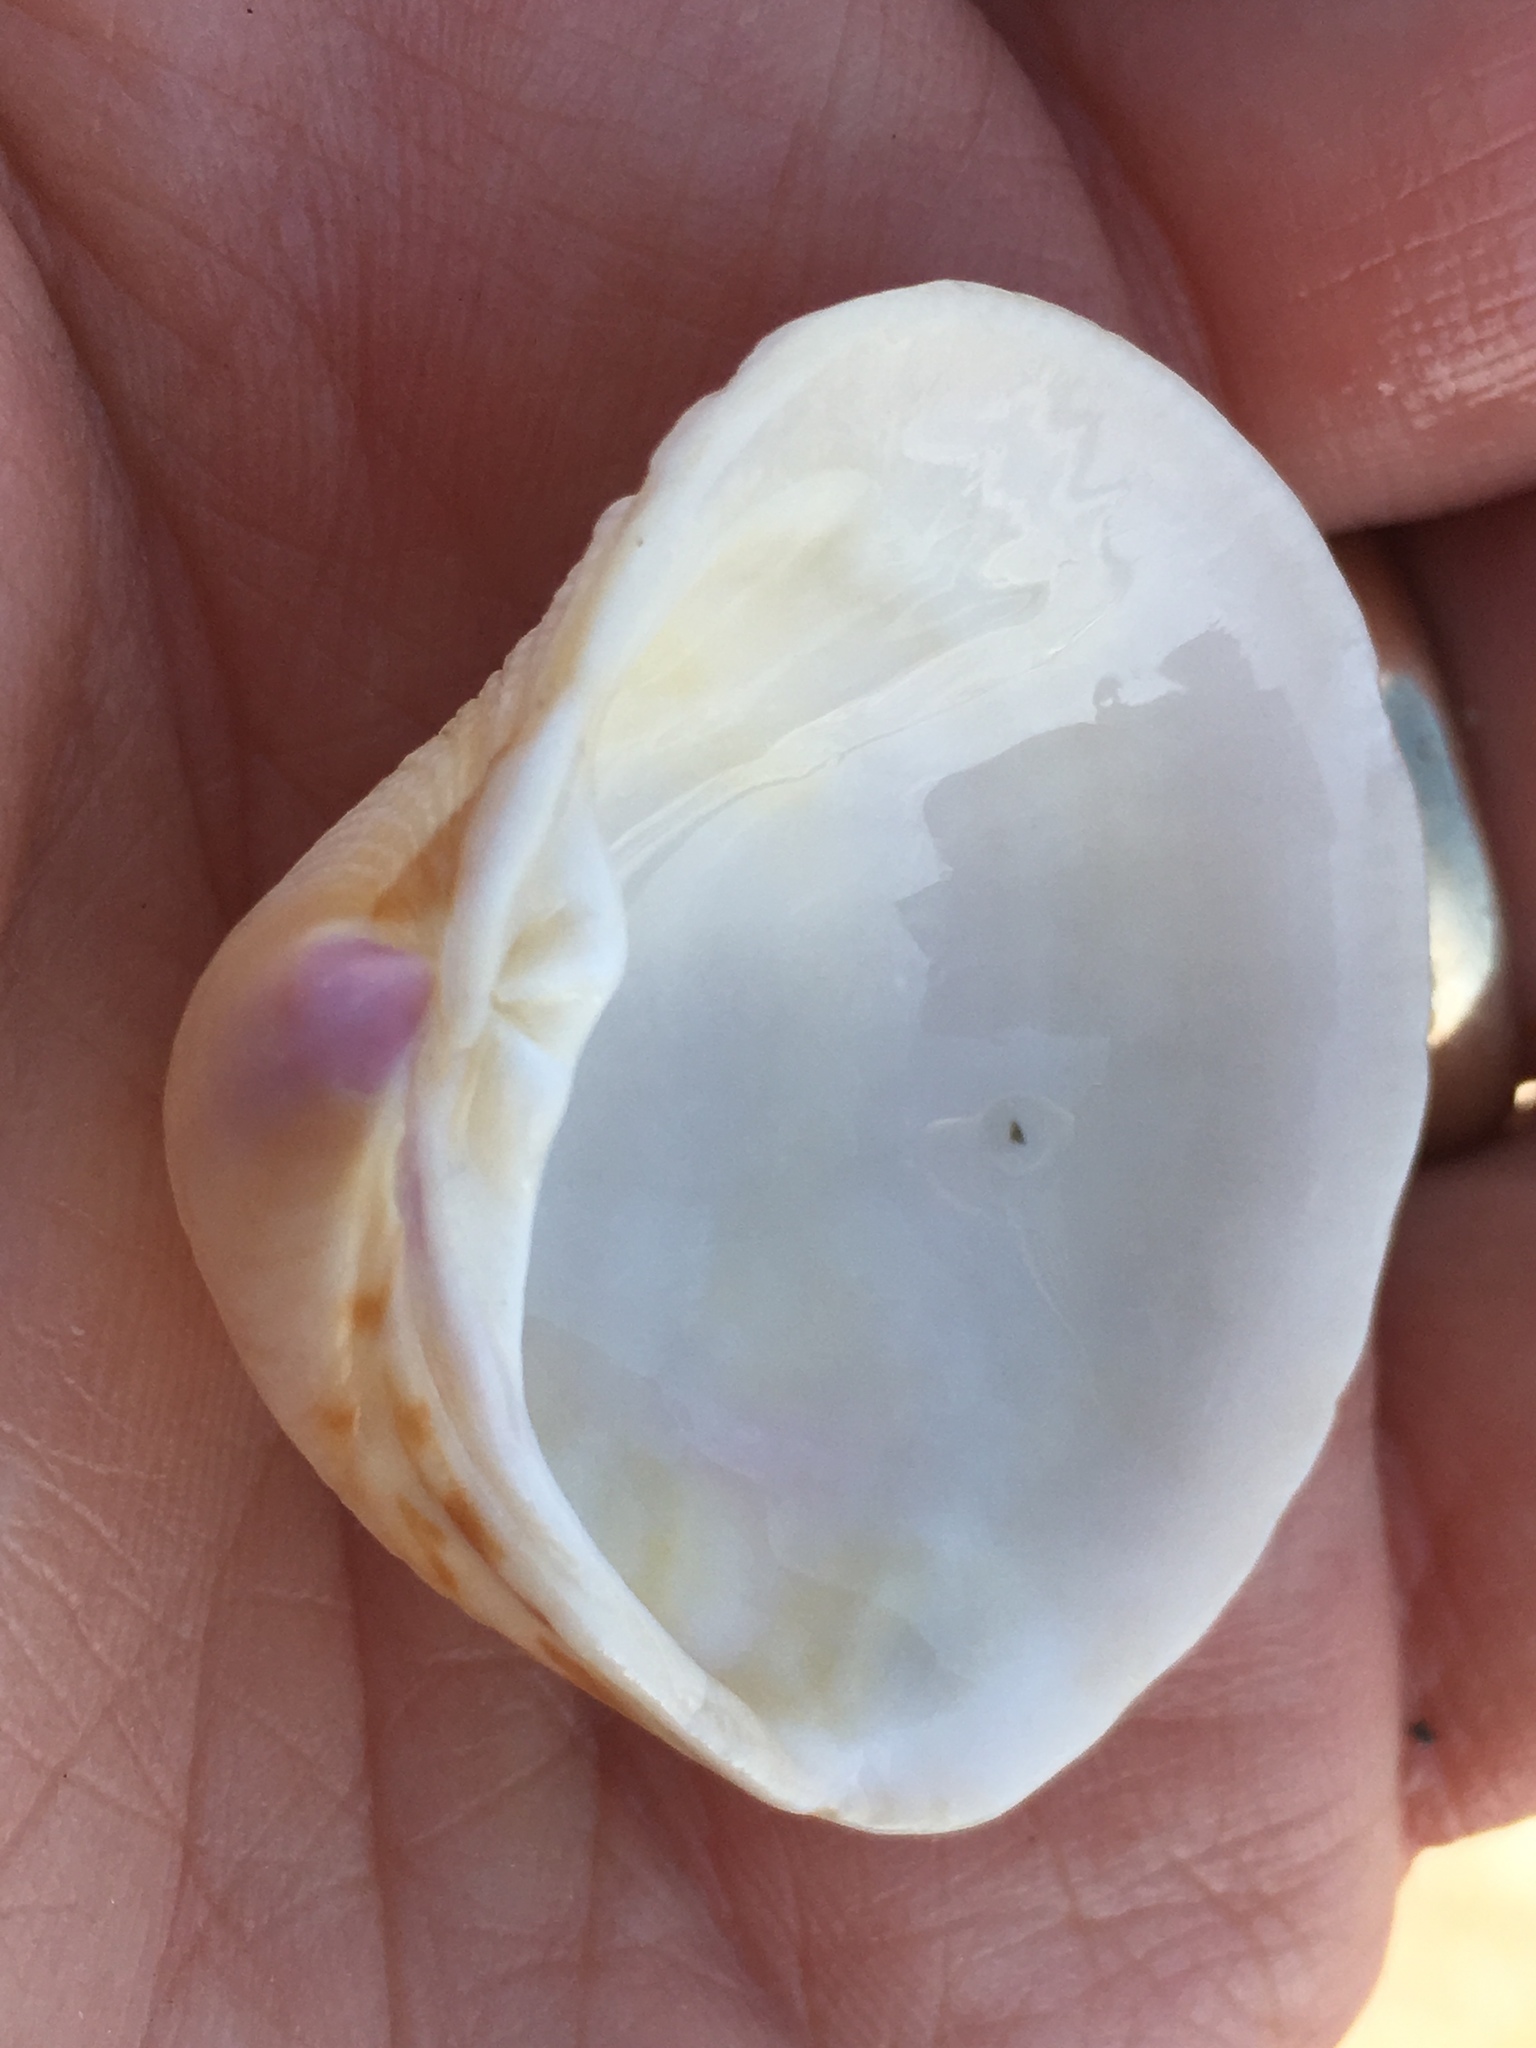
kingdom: Animalia
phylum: Mollusca
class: Bivalvia
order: Venerida
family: Veneridae
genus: Chionopsis
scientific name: Chionopsis intapurpurea
